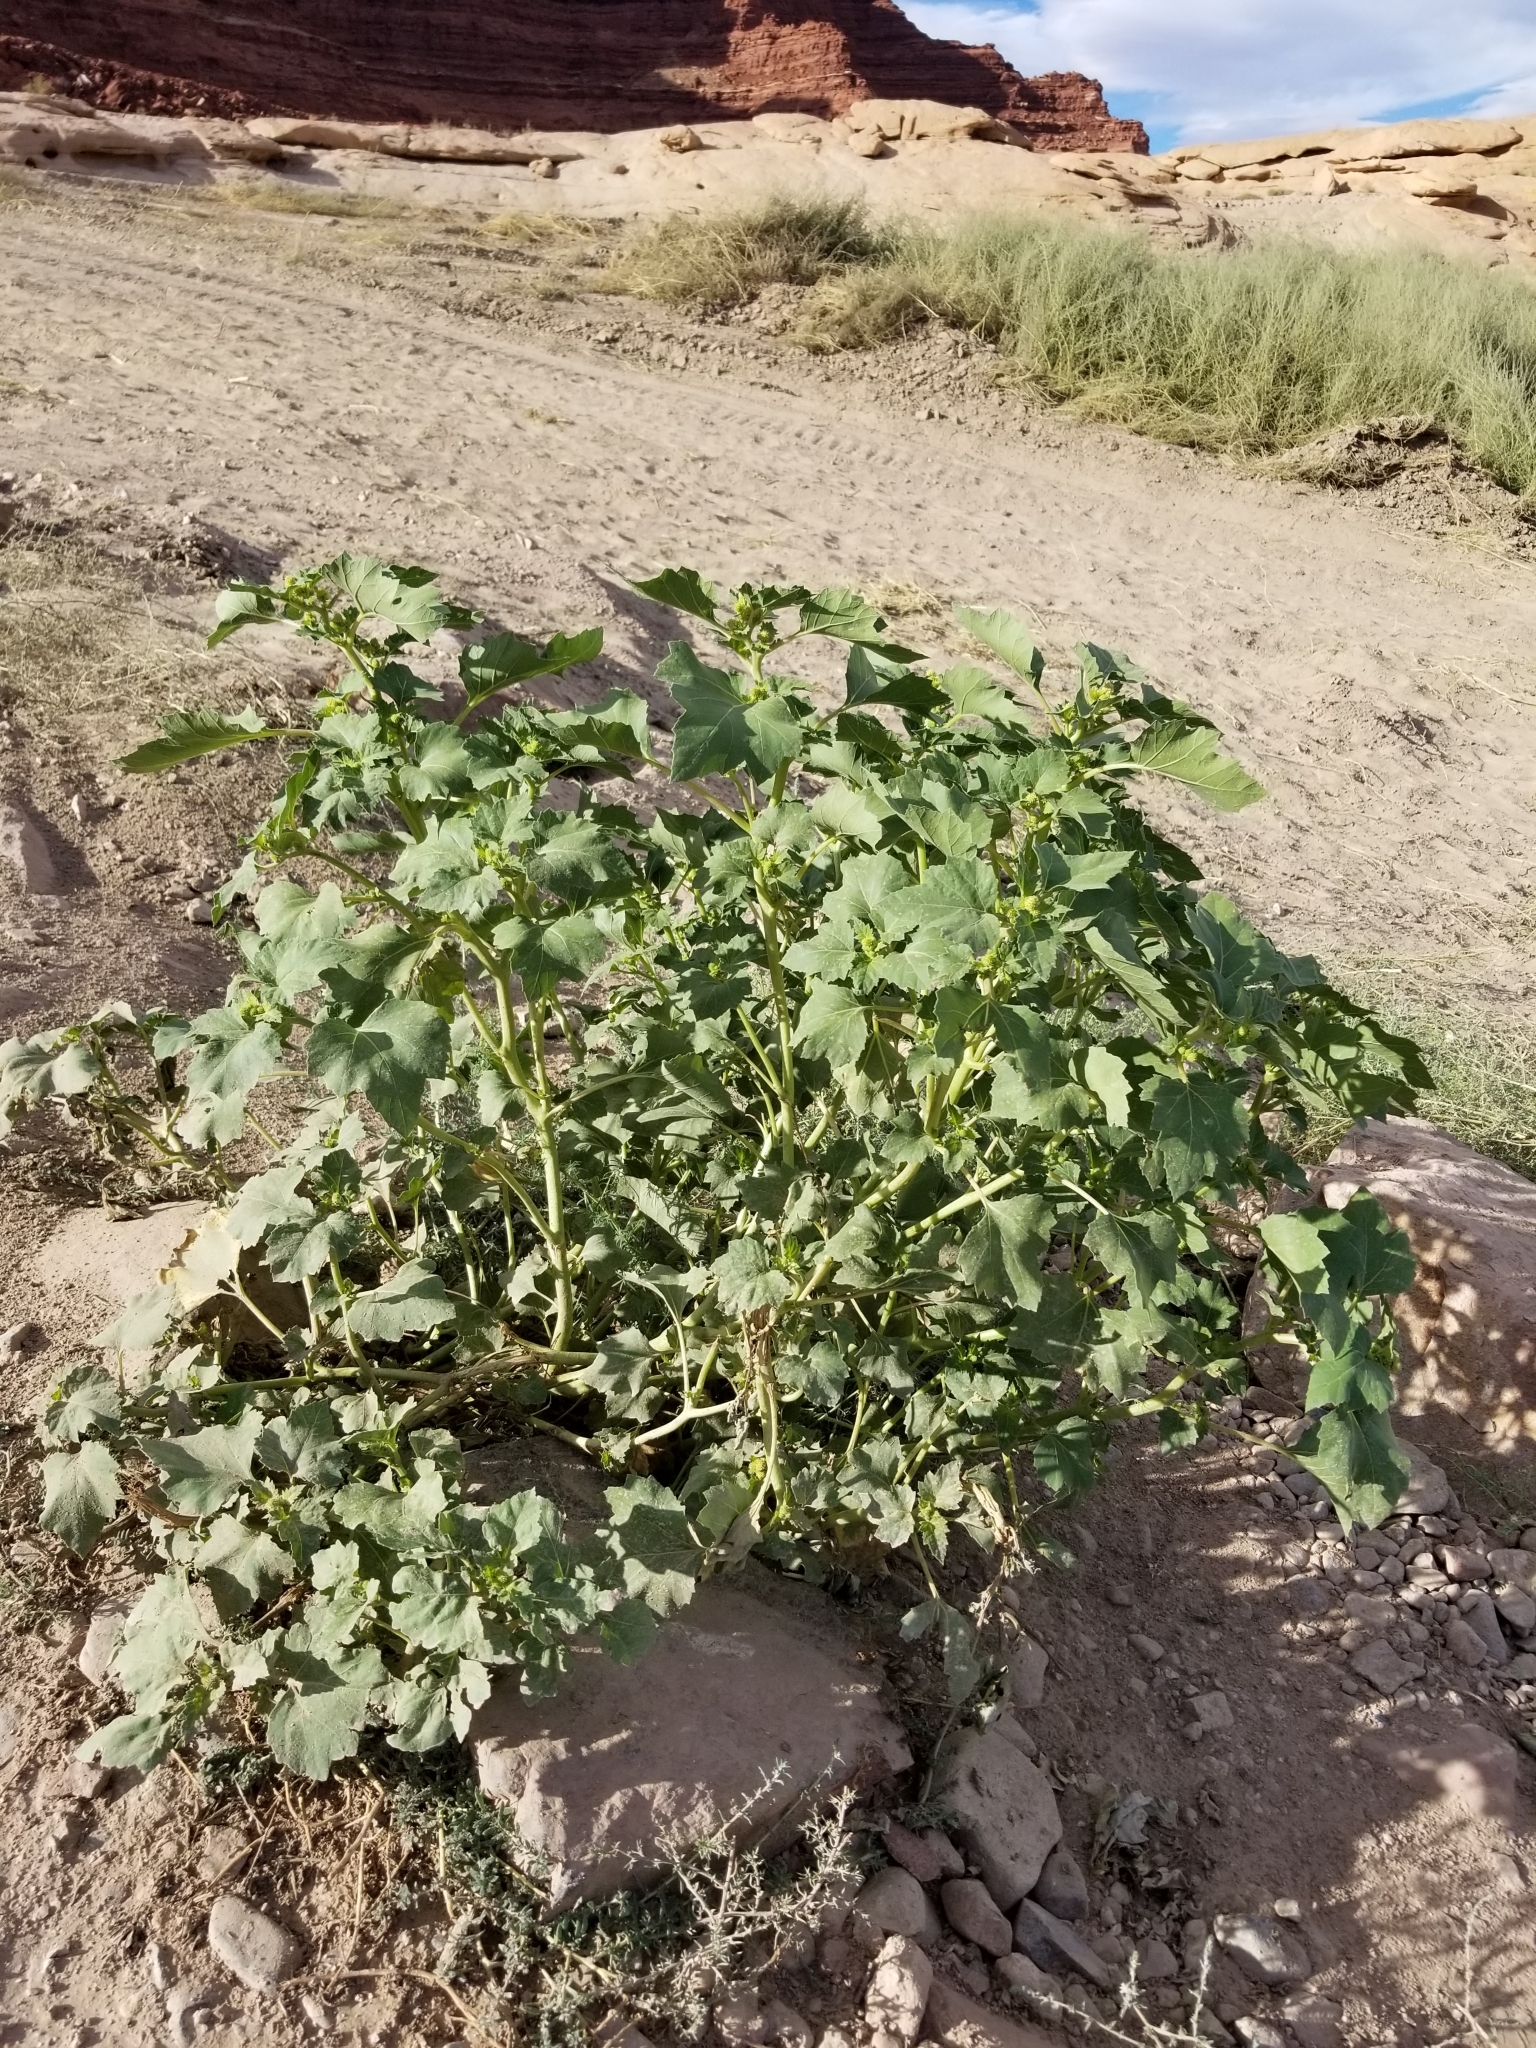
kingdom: Plantae
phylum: Tracheophyta
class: Magnoliopsida
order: Asterales
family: Asteraceae
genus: Xanthium
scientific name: Xanthium strumarium
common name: Rough cocklebur
